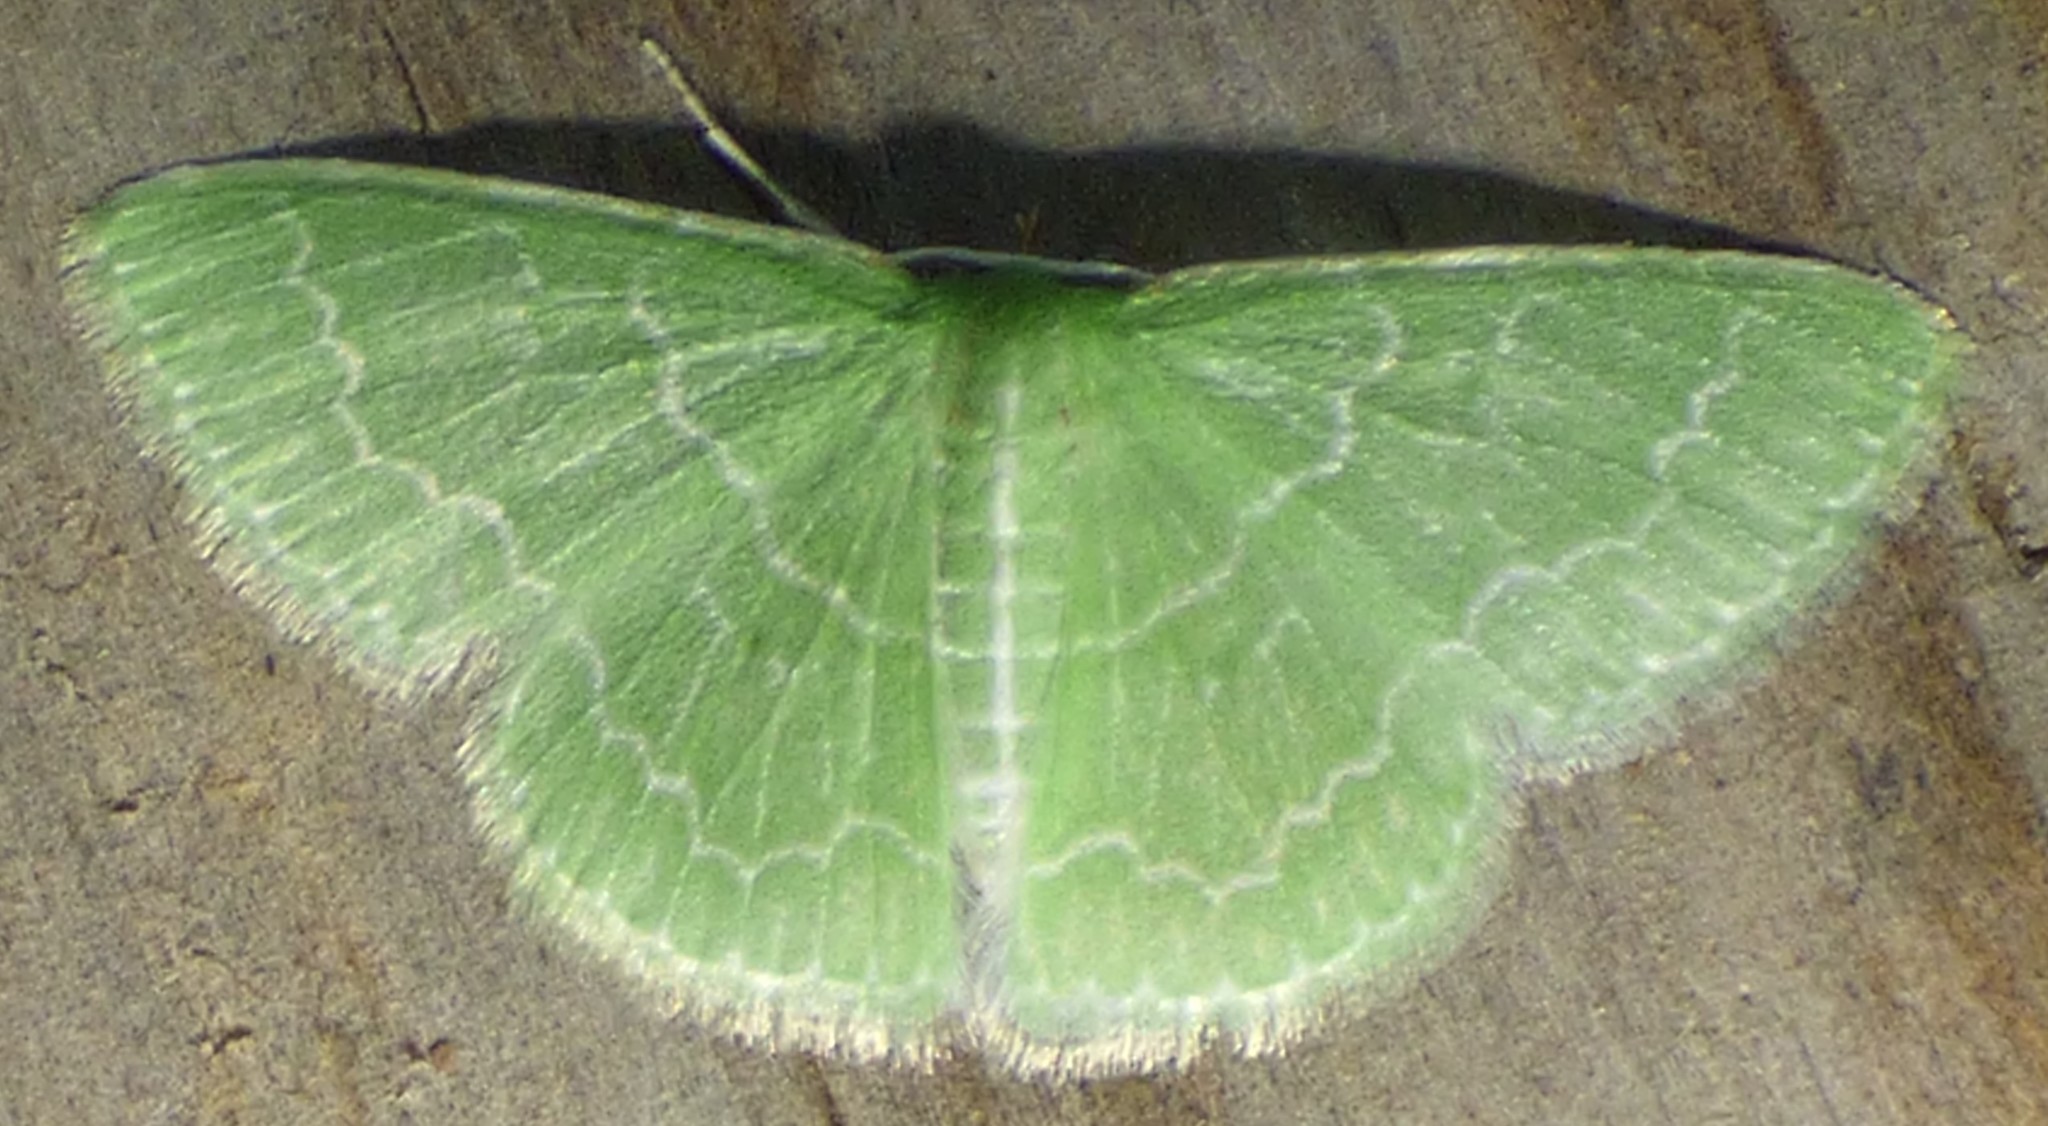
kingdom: Animalia
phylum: Arthropoda
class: Insecta
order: Lepidoptera
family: Geometridae
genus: Synchlora
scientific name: Synchlora frondaria
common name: Southern emerald
